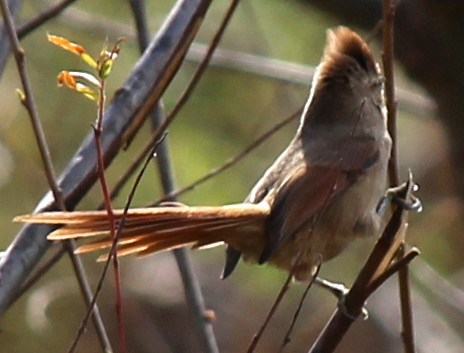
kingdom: Animalia
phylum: Chordata
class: Aves
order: Passeriformes
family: Furnariidae
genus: Leptasthenura
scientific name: Leptasthenura fuliginiceps
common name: Brown-capped tit-spinetail
